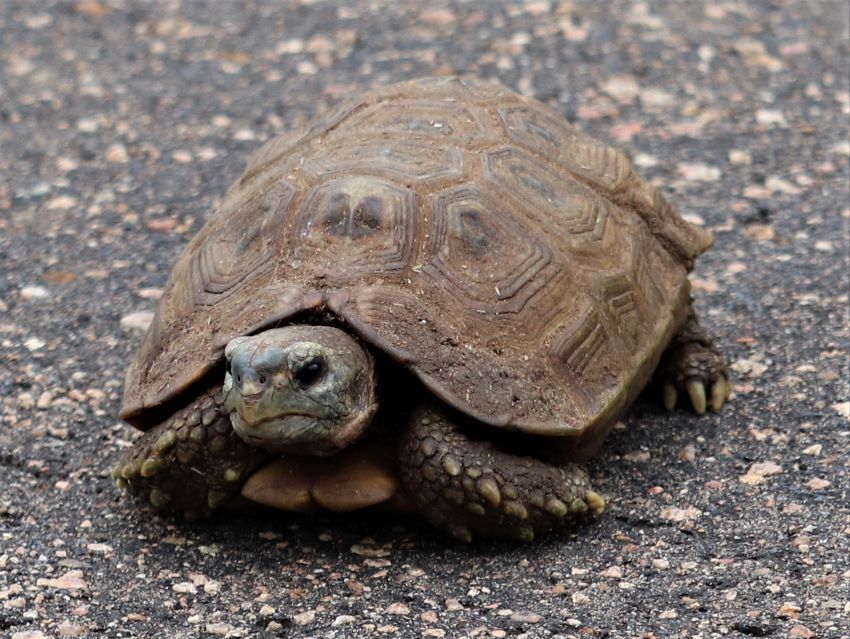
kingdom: Animalia
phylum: Chordata
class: Testudines
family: Testudinidae
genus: Kinixys
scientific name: Kinixys spekii
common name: Speke's hingeback tortoise
